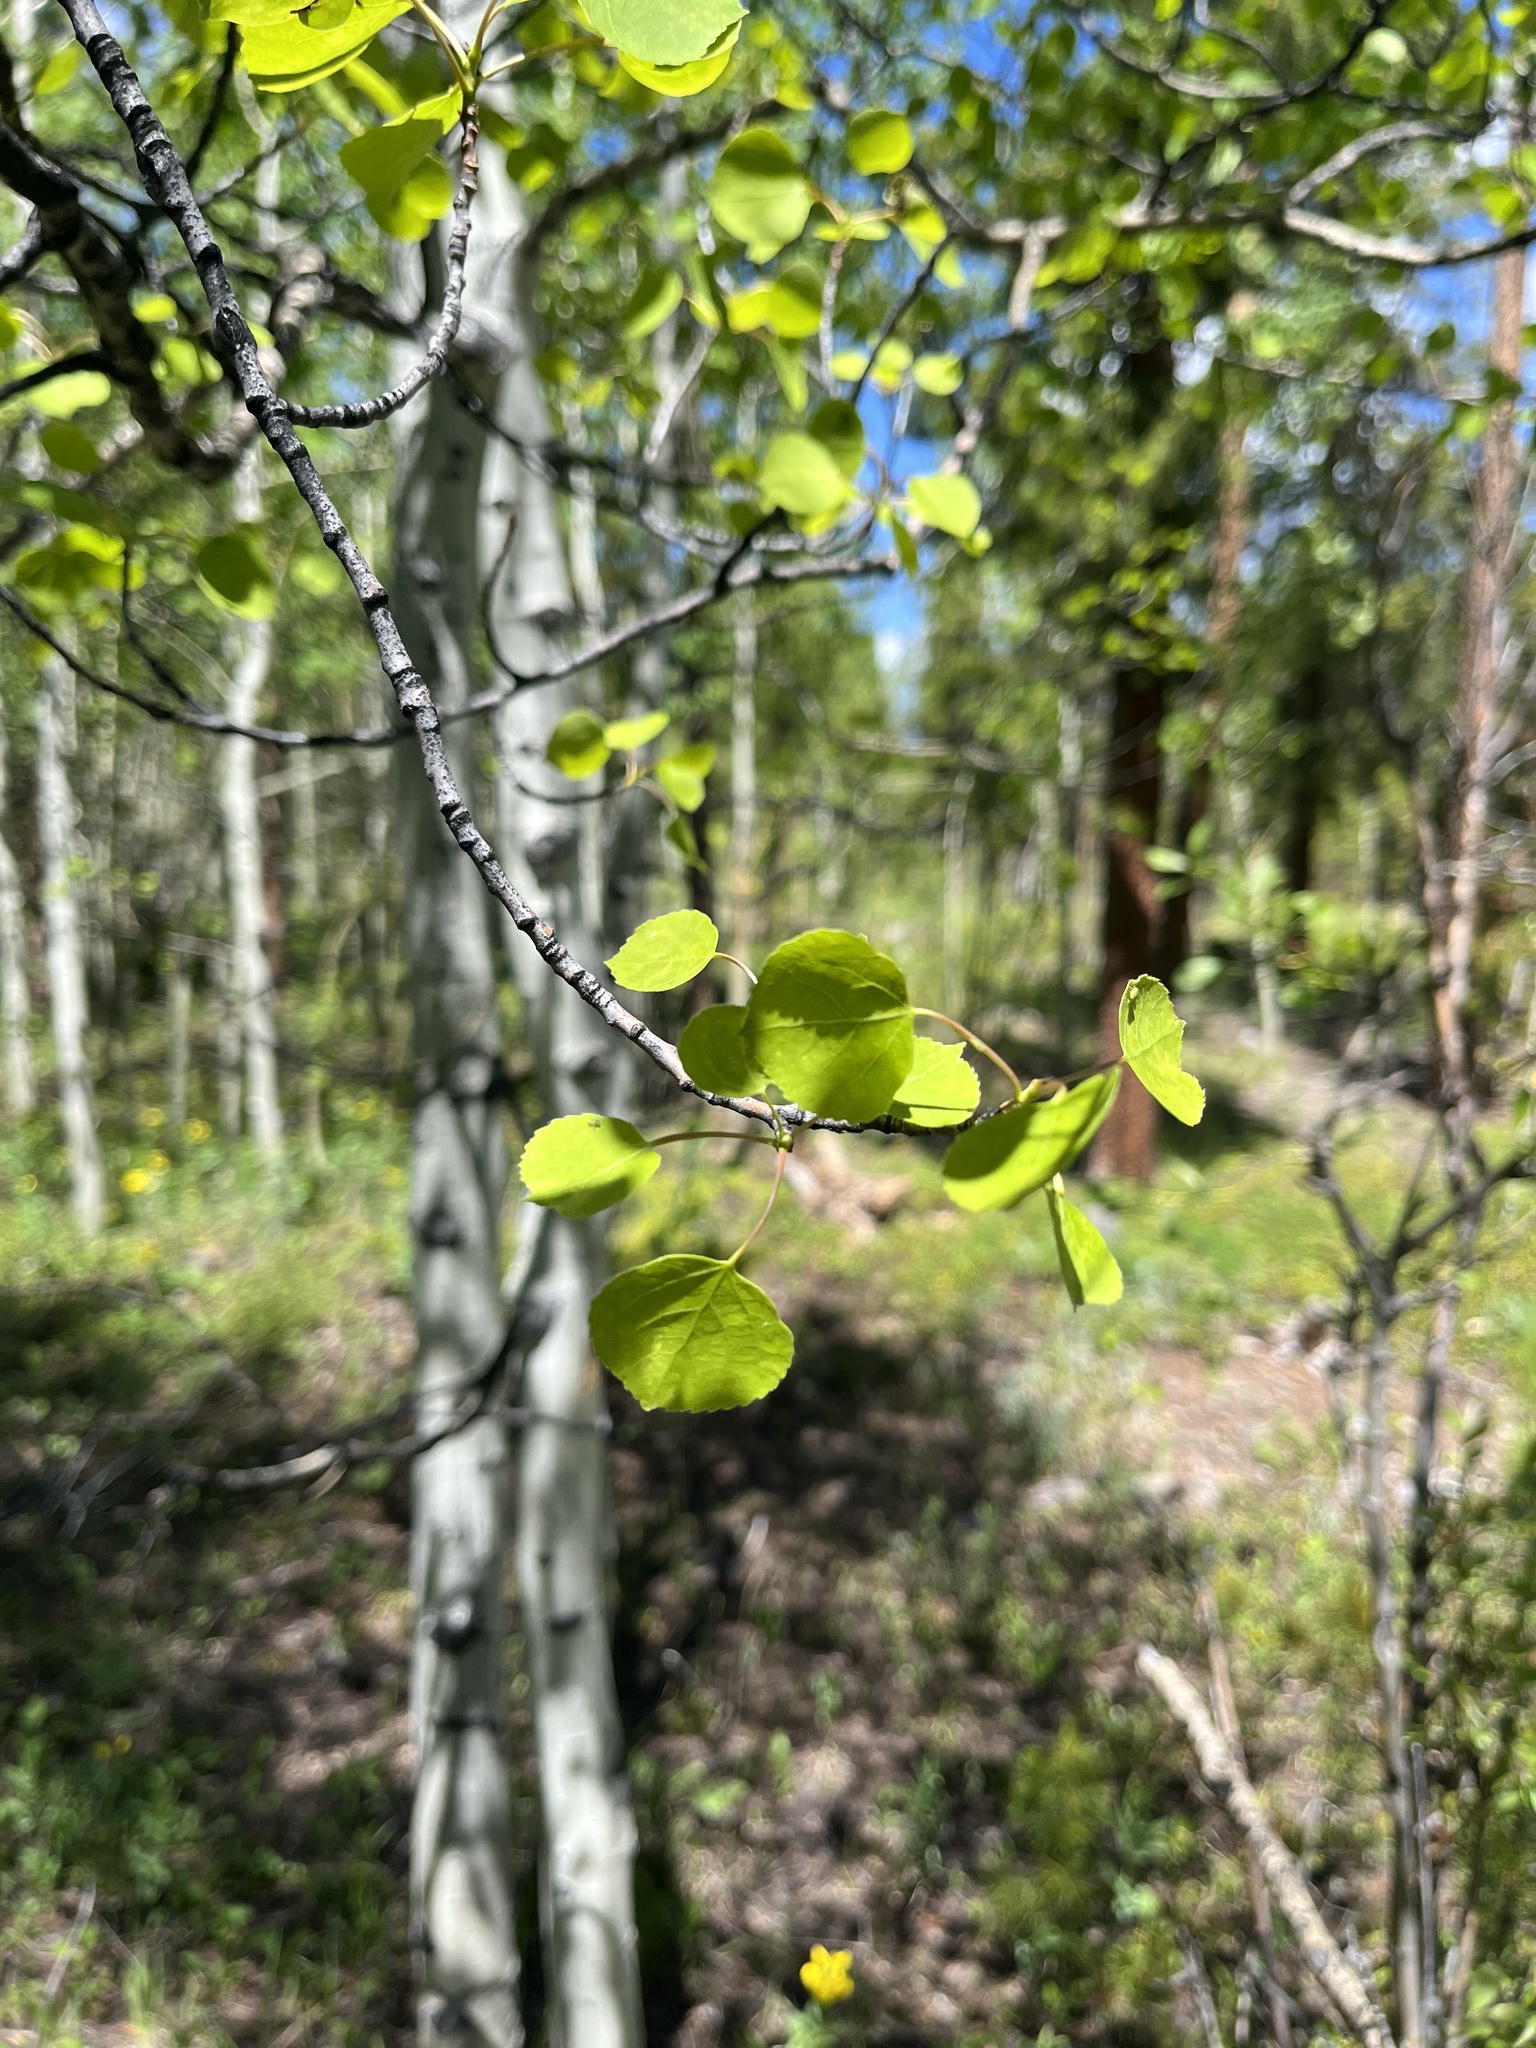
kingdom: Plantae
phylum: Tracheophyta
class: Magnoliopsida
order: Malpighiales
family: Salicaceae
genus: Populus
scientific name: Populus tremuloides
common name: Quaking aspen
